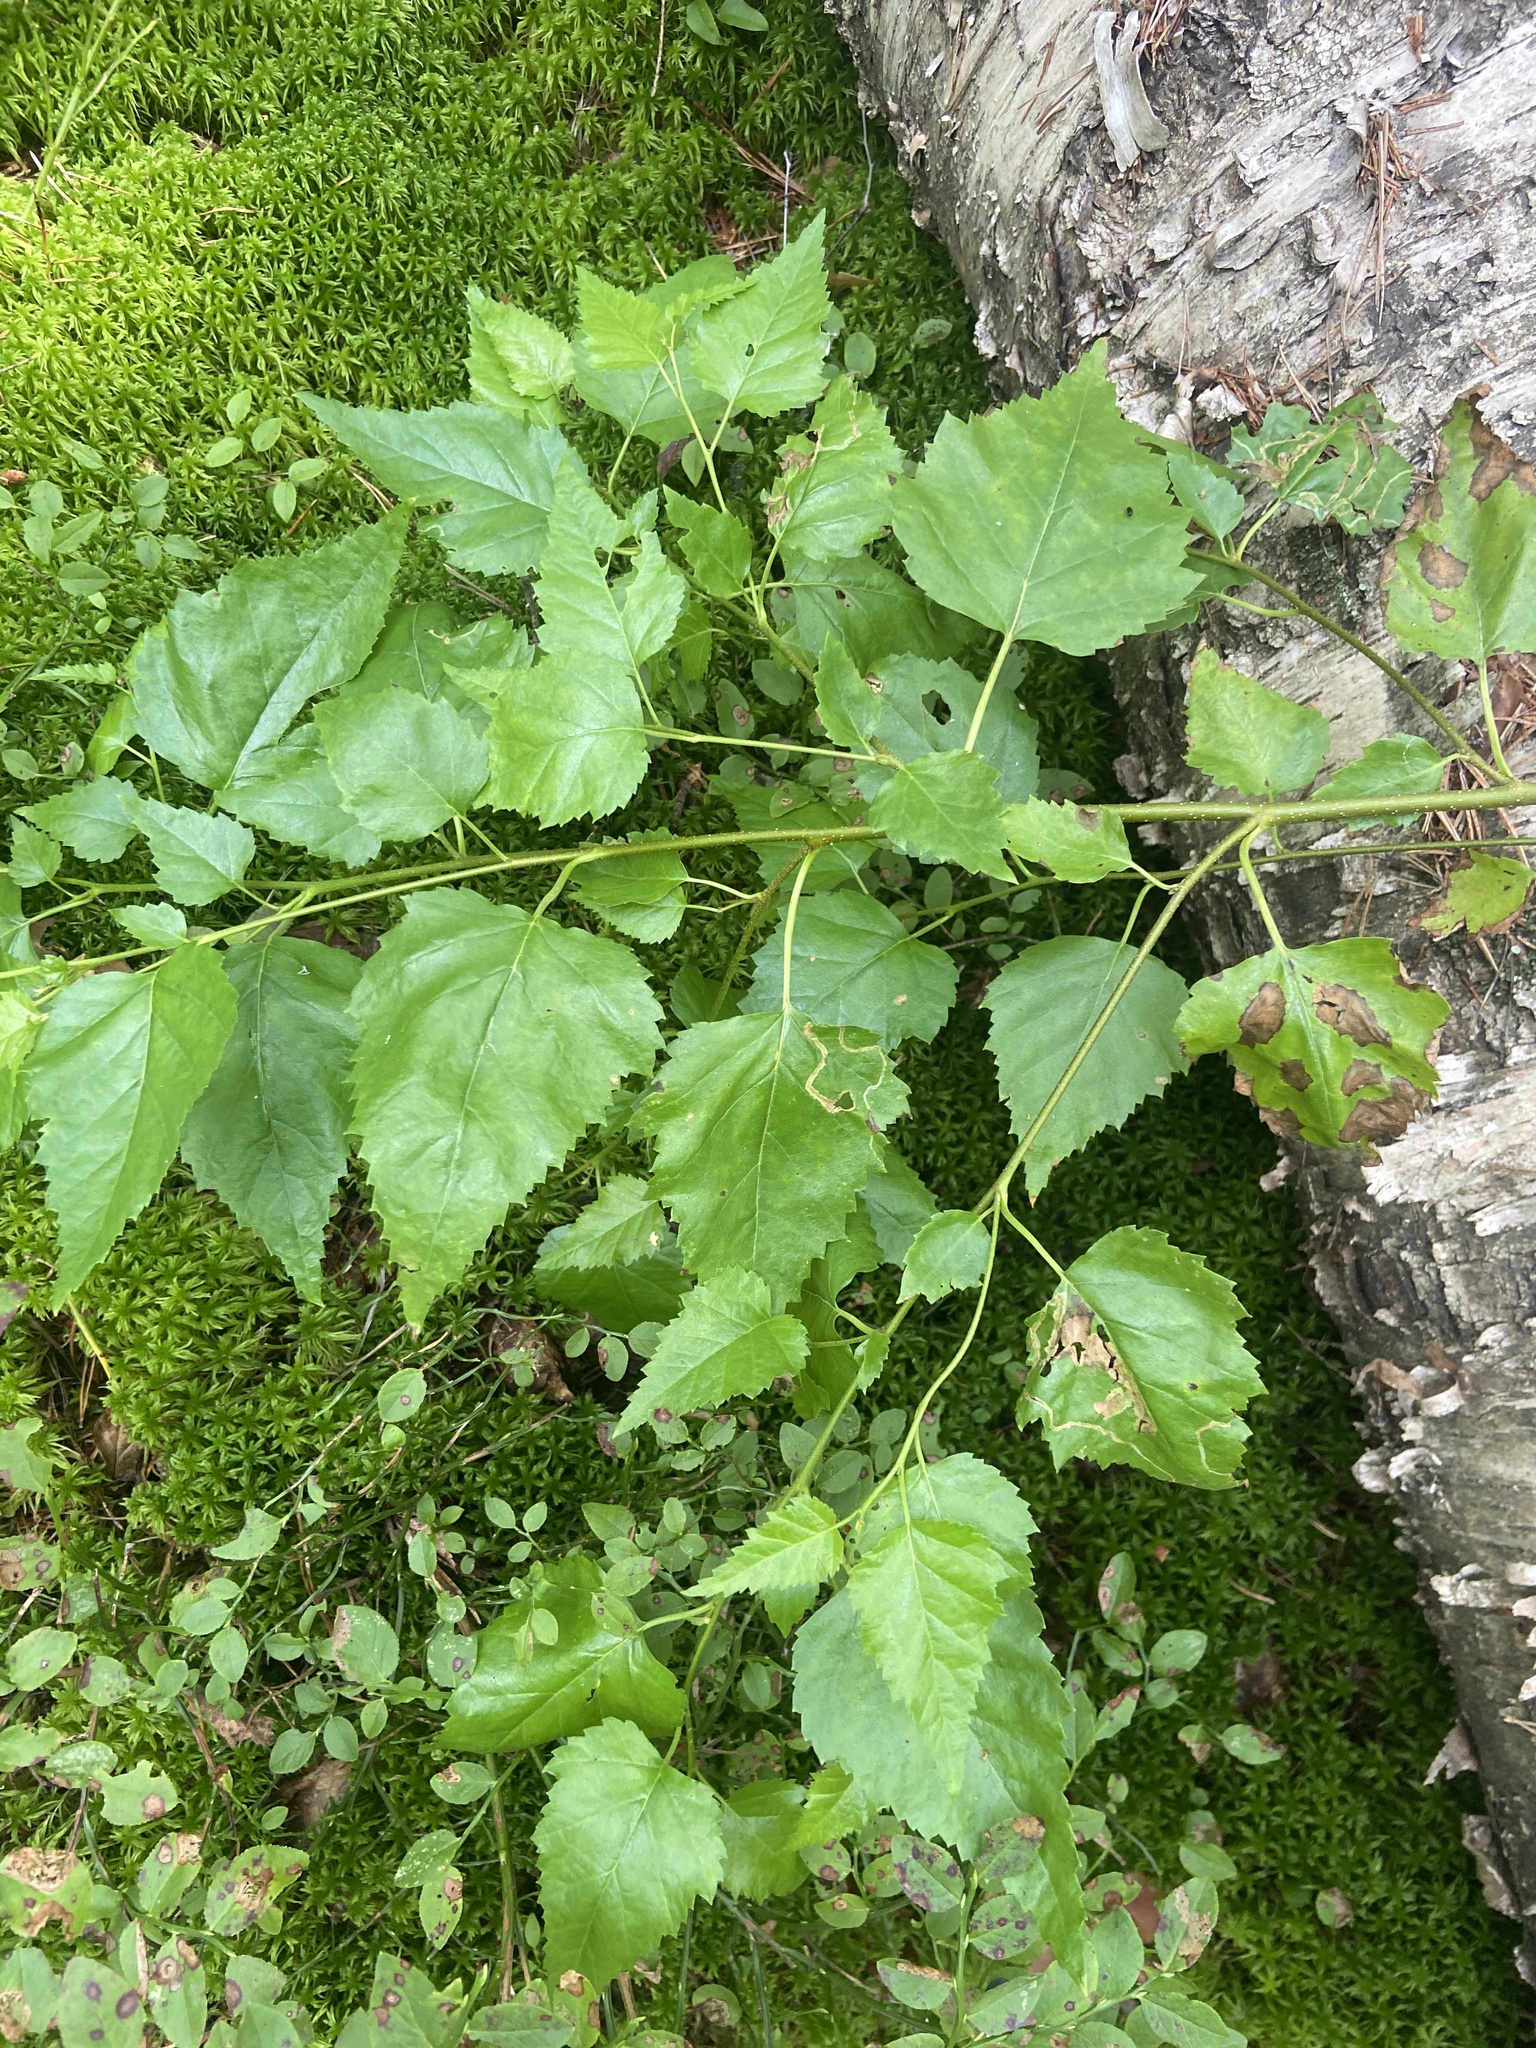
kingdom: Plantae
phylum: Tracheophyta
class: Magnoliopsida
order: Fagales
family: Betulaceae
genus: Betula
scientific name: Betula pendula
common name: Silver birch
